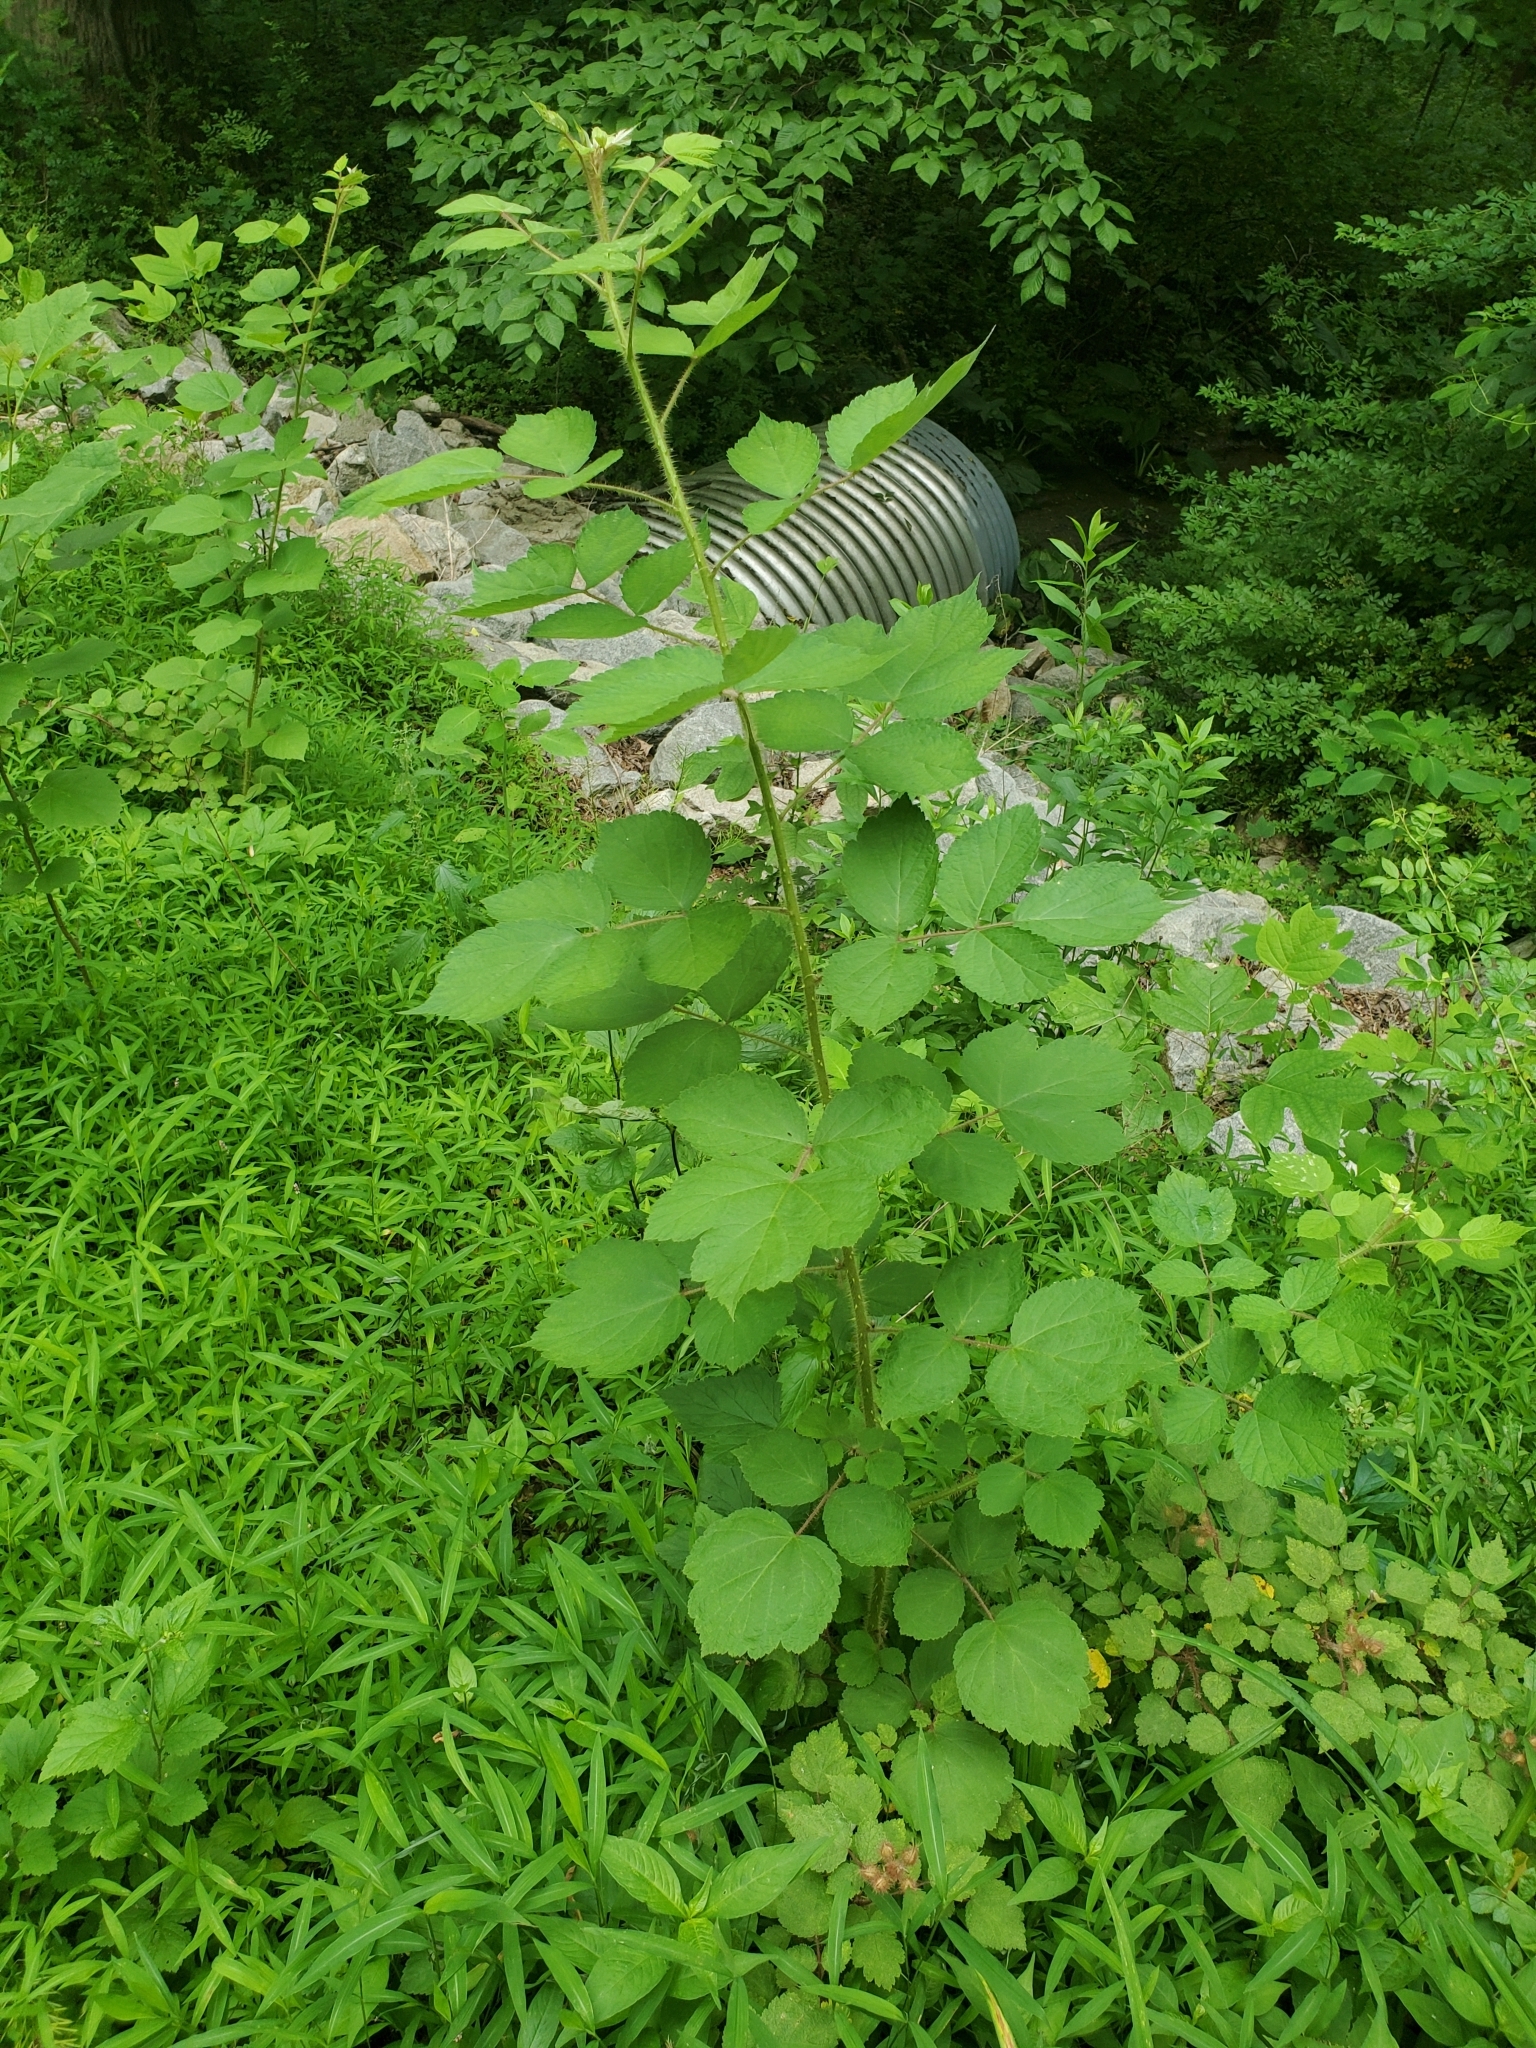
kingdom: Plantae
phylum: Tracheophyta
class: Magnoliopsida
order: Rosales
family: Rosaceae
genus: Rubus
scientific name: Rubus phoenicolasius
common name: Japanese wineberry
